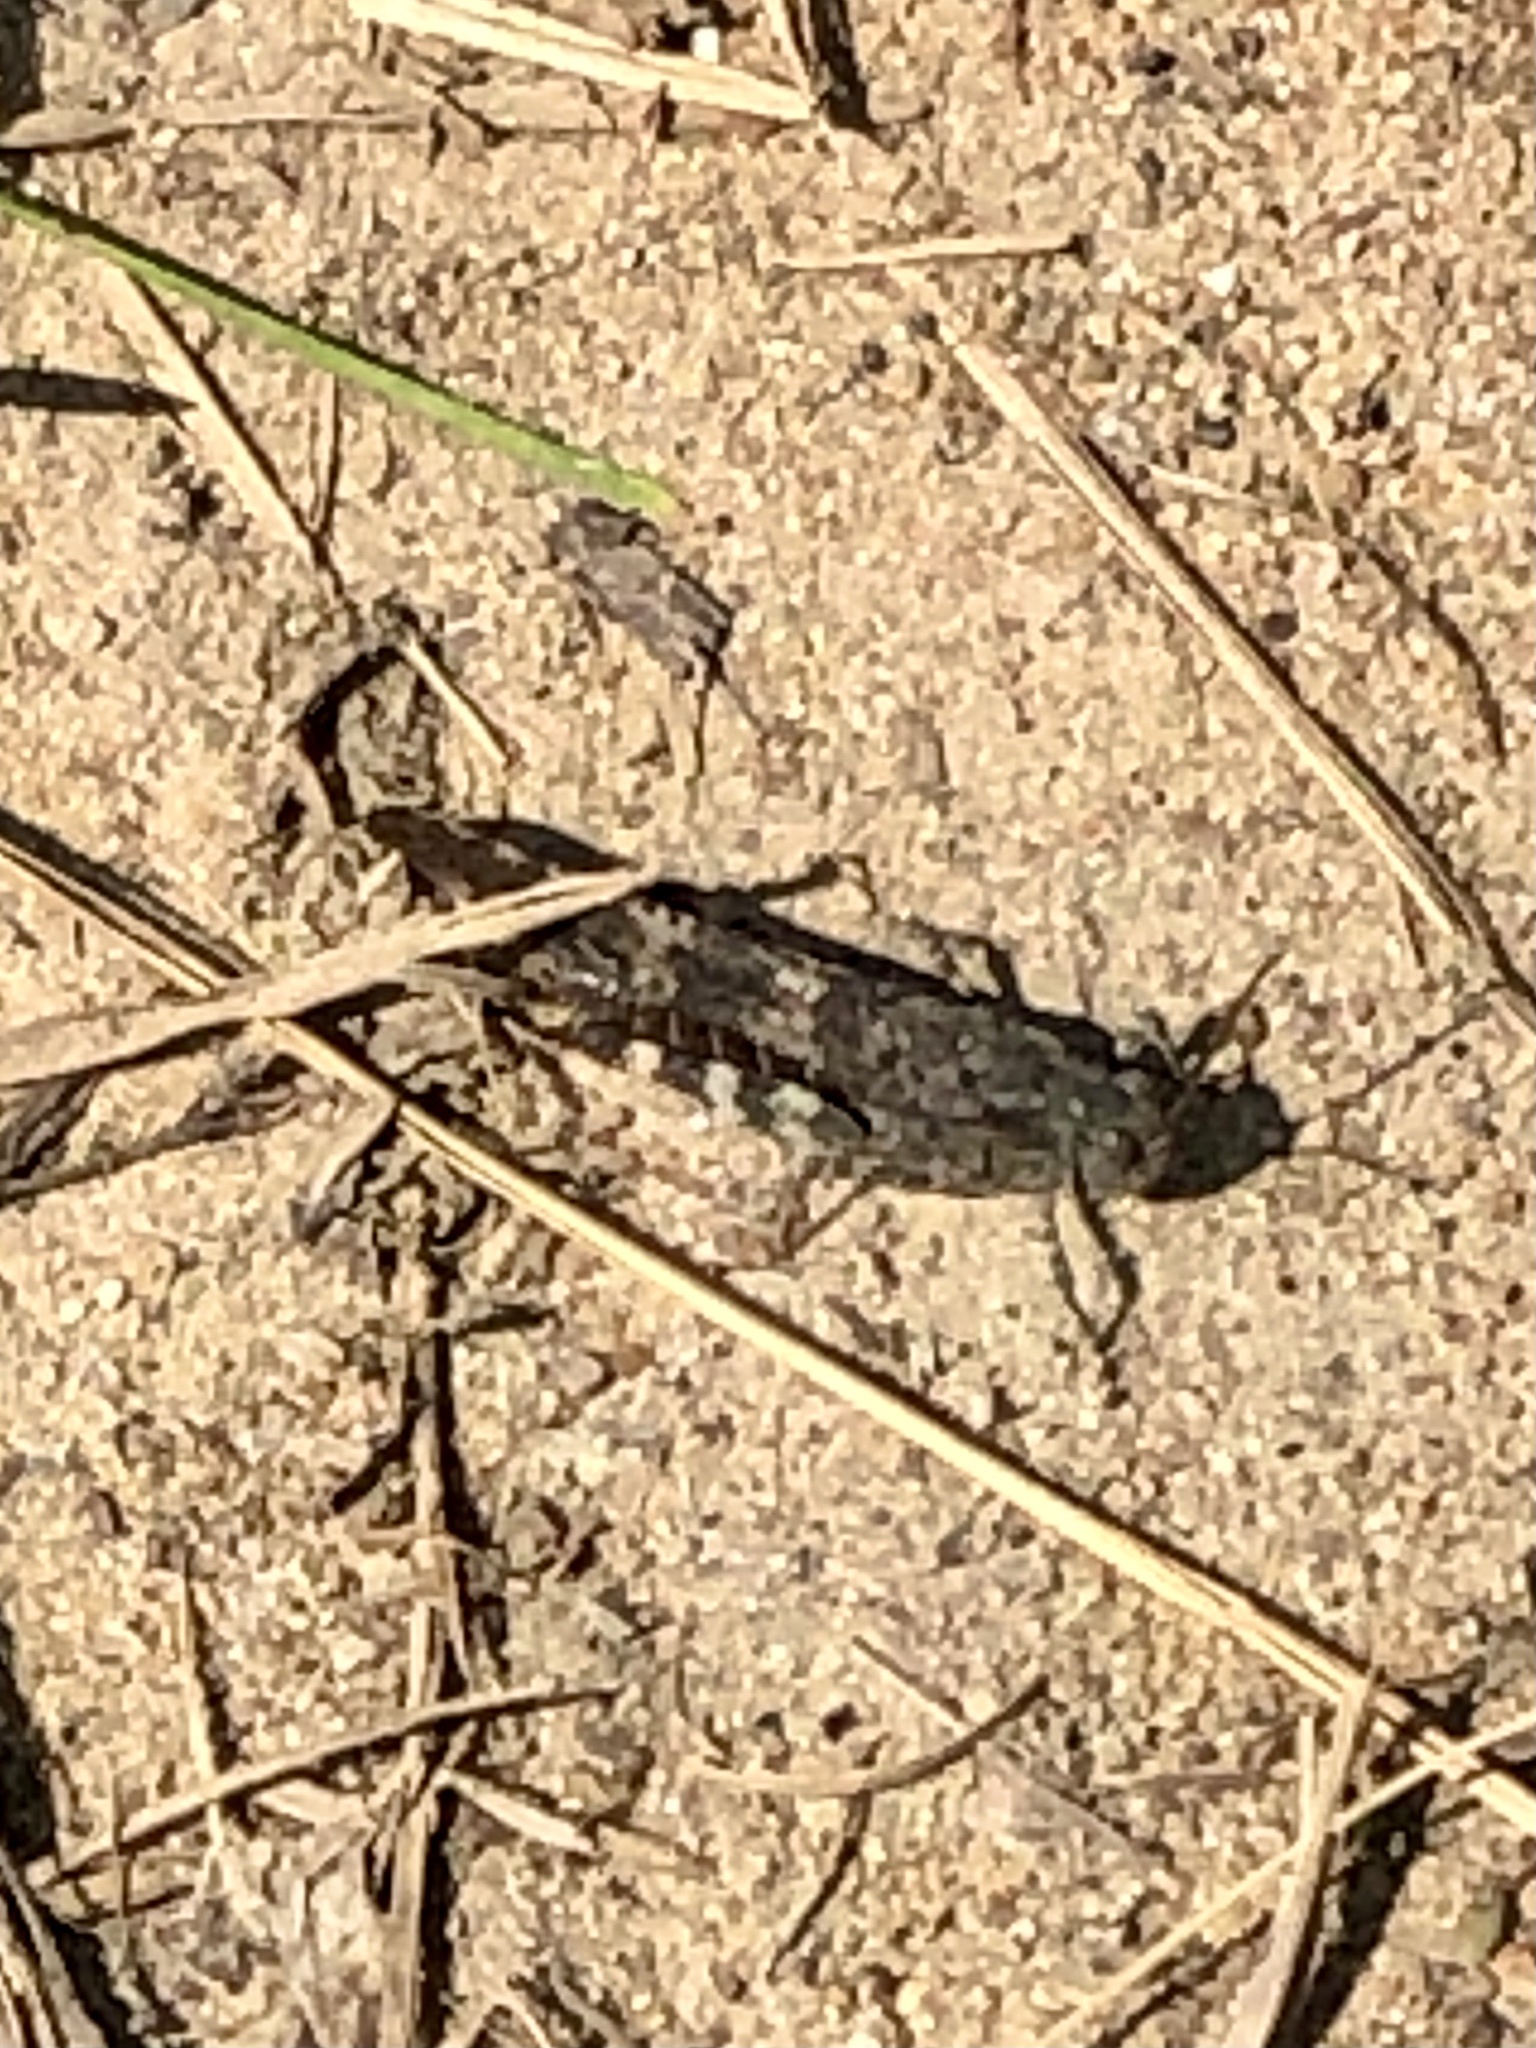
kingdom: Animalia
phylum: Arthropoda
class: Insecta
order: Orthoptera
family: Acrididae
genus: Trimerotropis
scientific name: Trimerotropis verruculata
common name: Crackling forest grasshopper
